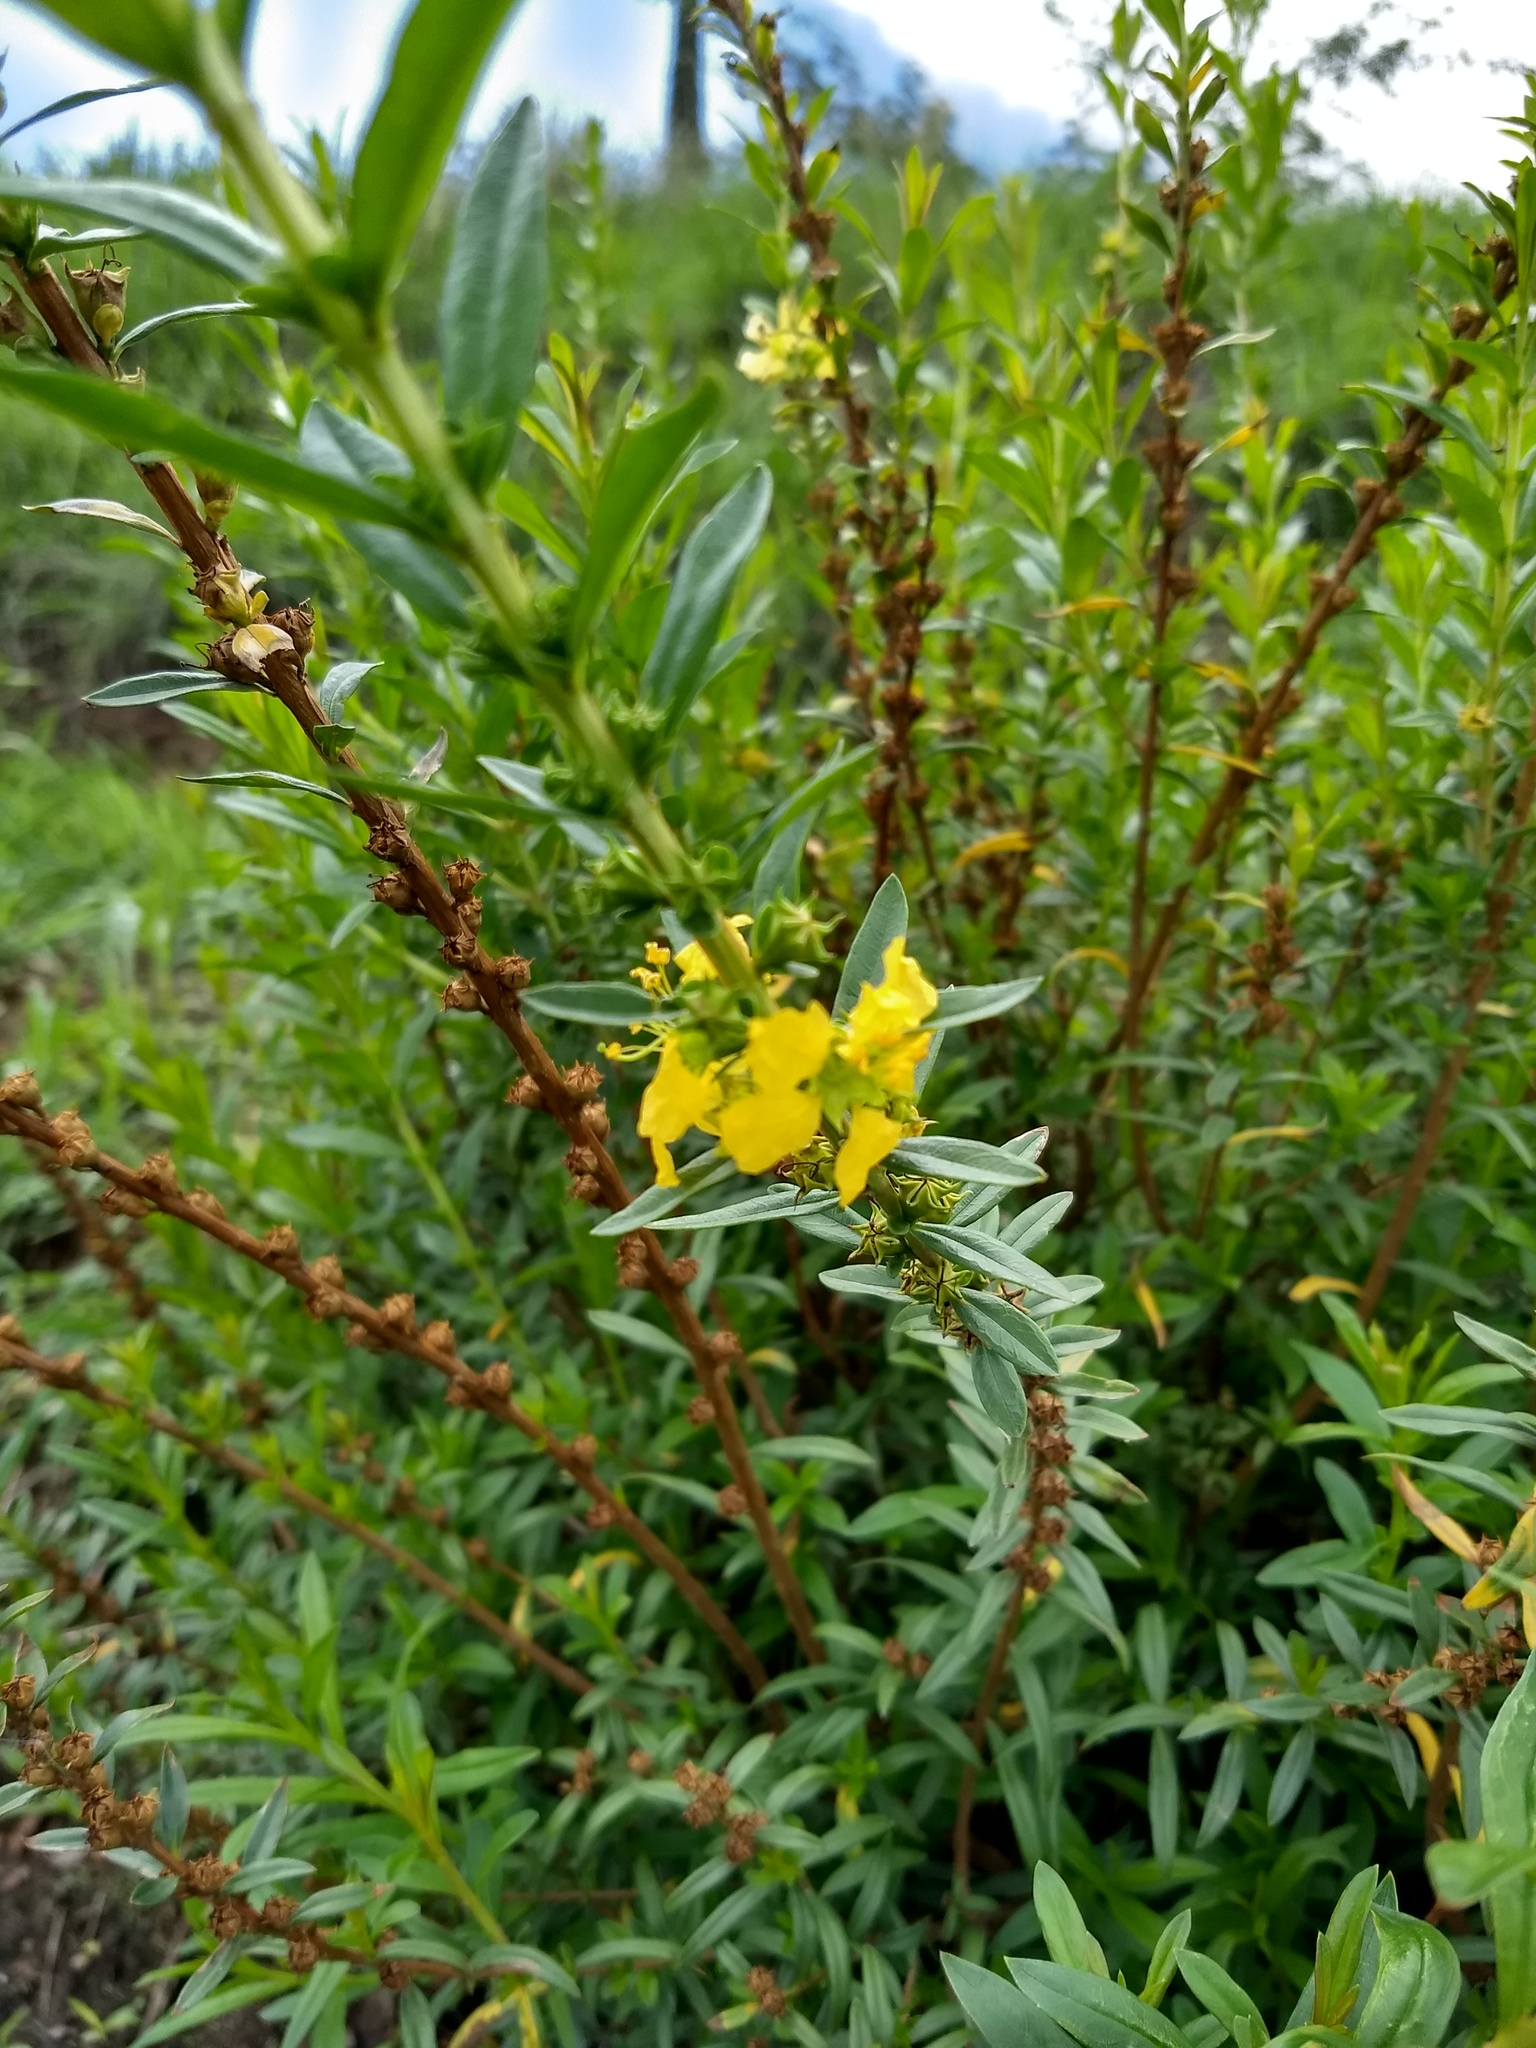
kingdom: Plantae
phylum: Tracheophyta
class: Magnoliopsida
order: Myrtales
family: Lythraceae
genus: Heimia
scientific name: Heimia salicifolia
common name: Willow-leaf heimia
